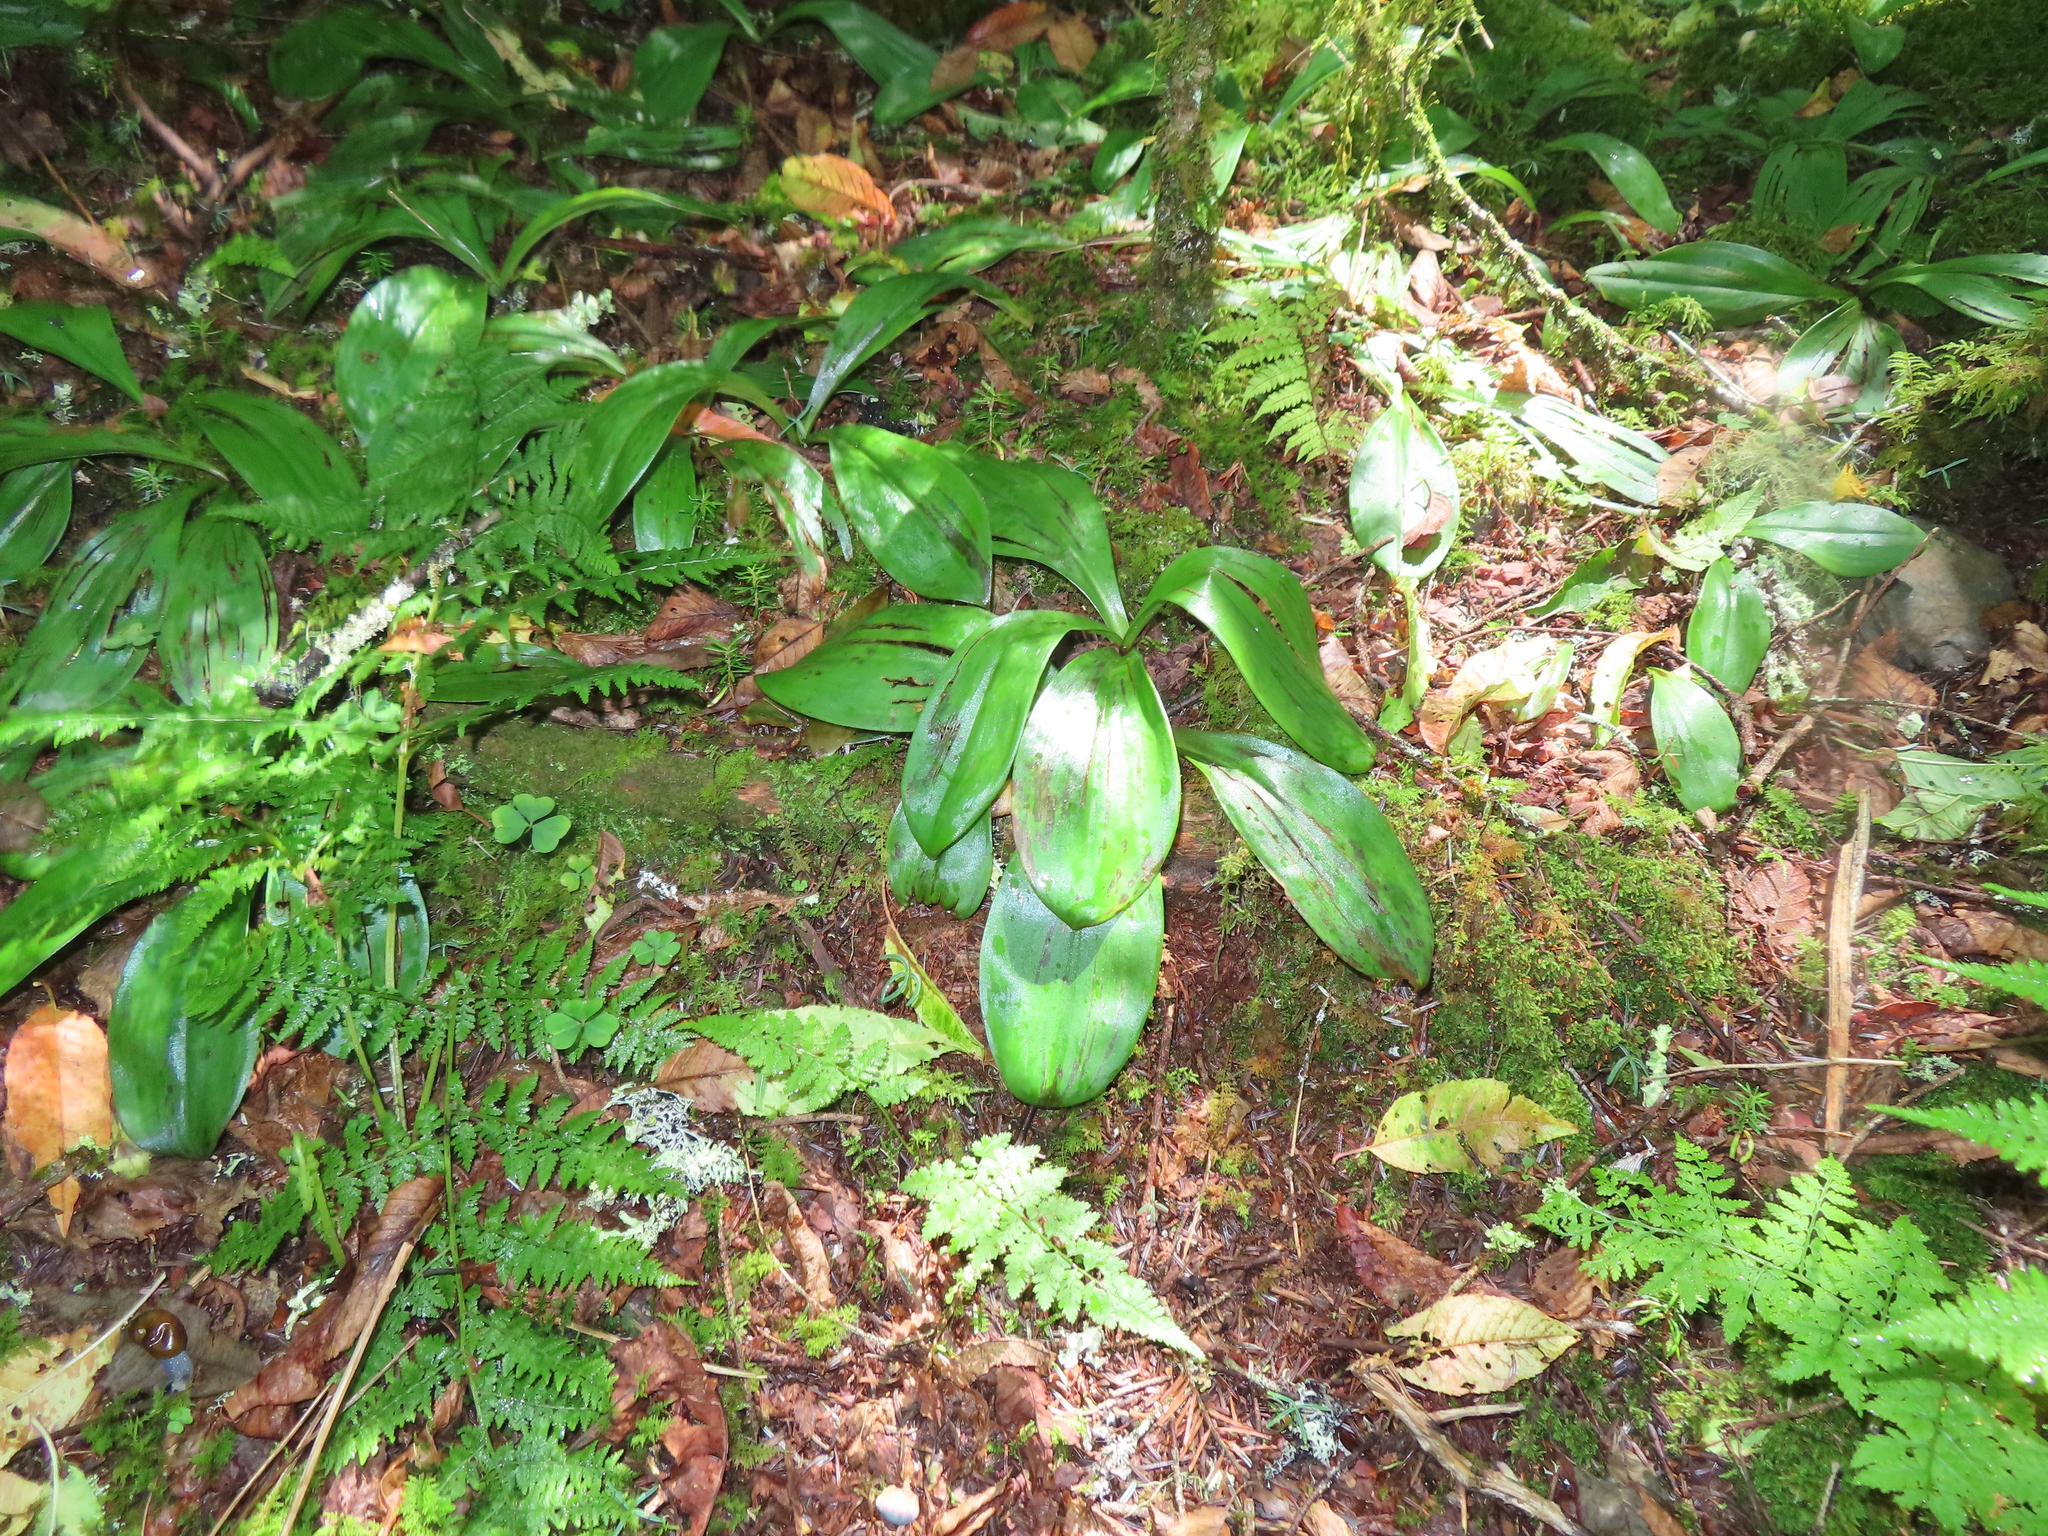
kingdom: Plantae
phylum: Tracheophyta
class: Liliopsida
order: Liliales
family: Liliaceae
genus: Clintonia
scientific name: Clintonia borealis
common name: Yellow clintonia
